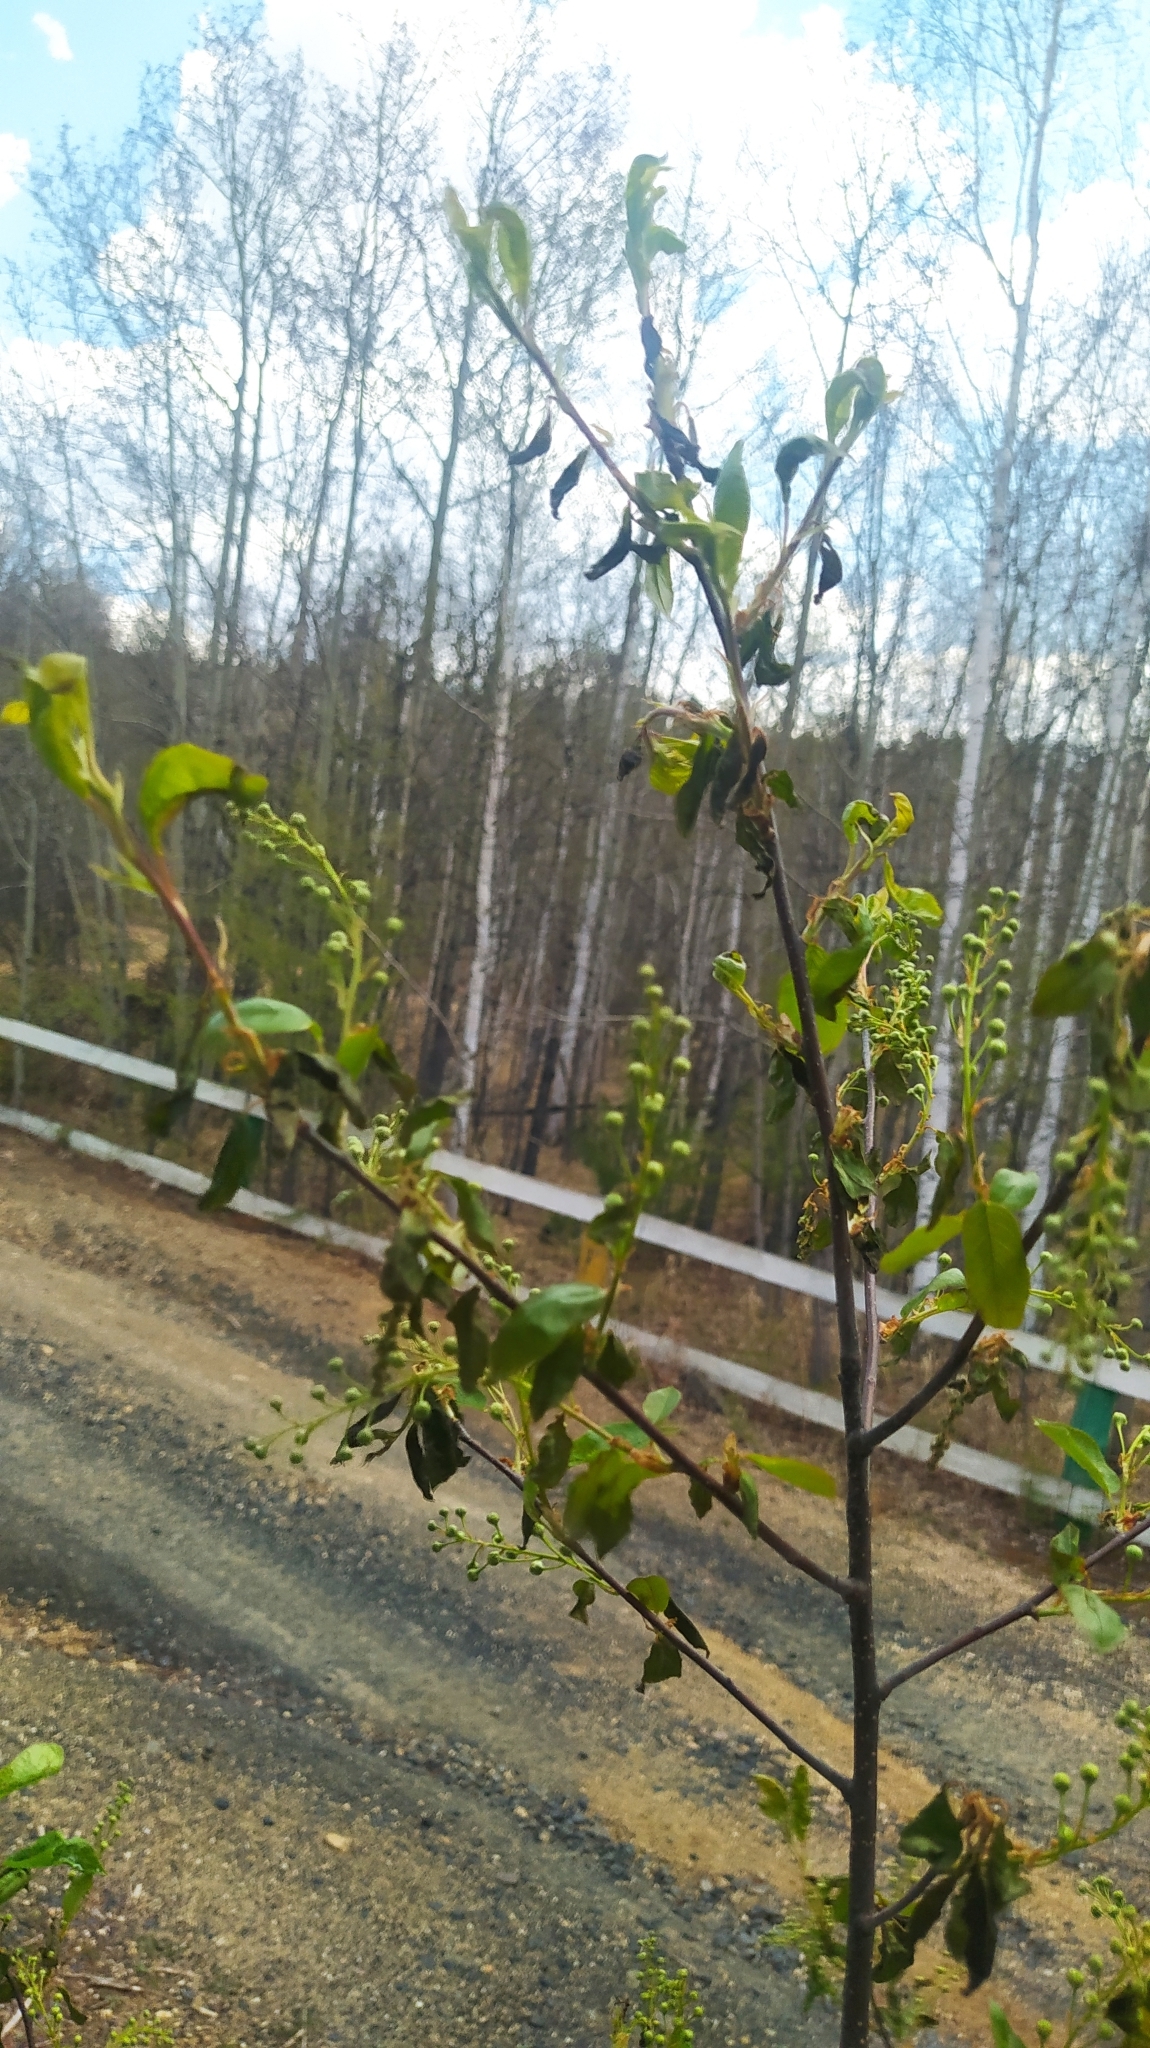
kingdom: Plantae
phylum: Tracheophyta
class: Magnoliopsida
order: Rosales
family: Rosaceae
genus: Prunus
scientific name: Prunus padus
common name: Bird cherry
